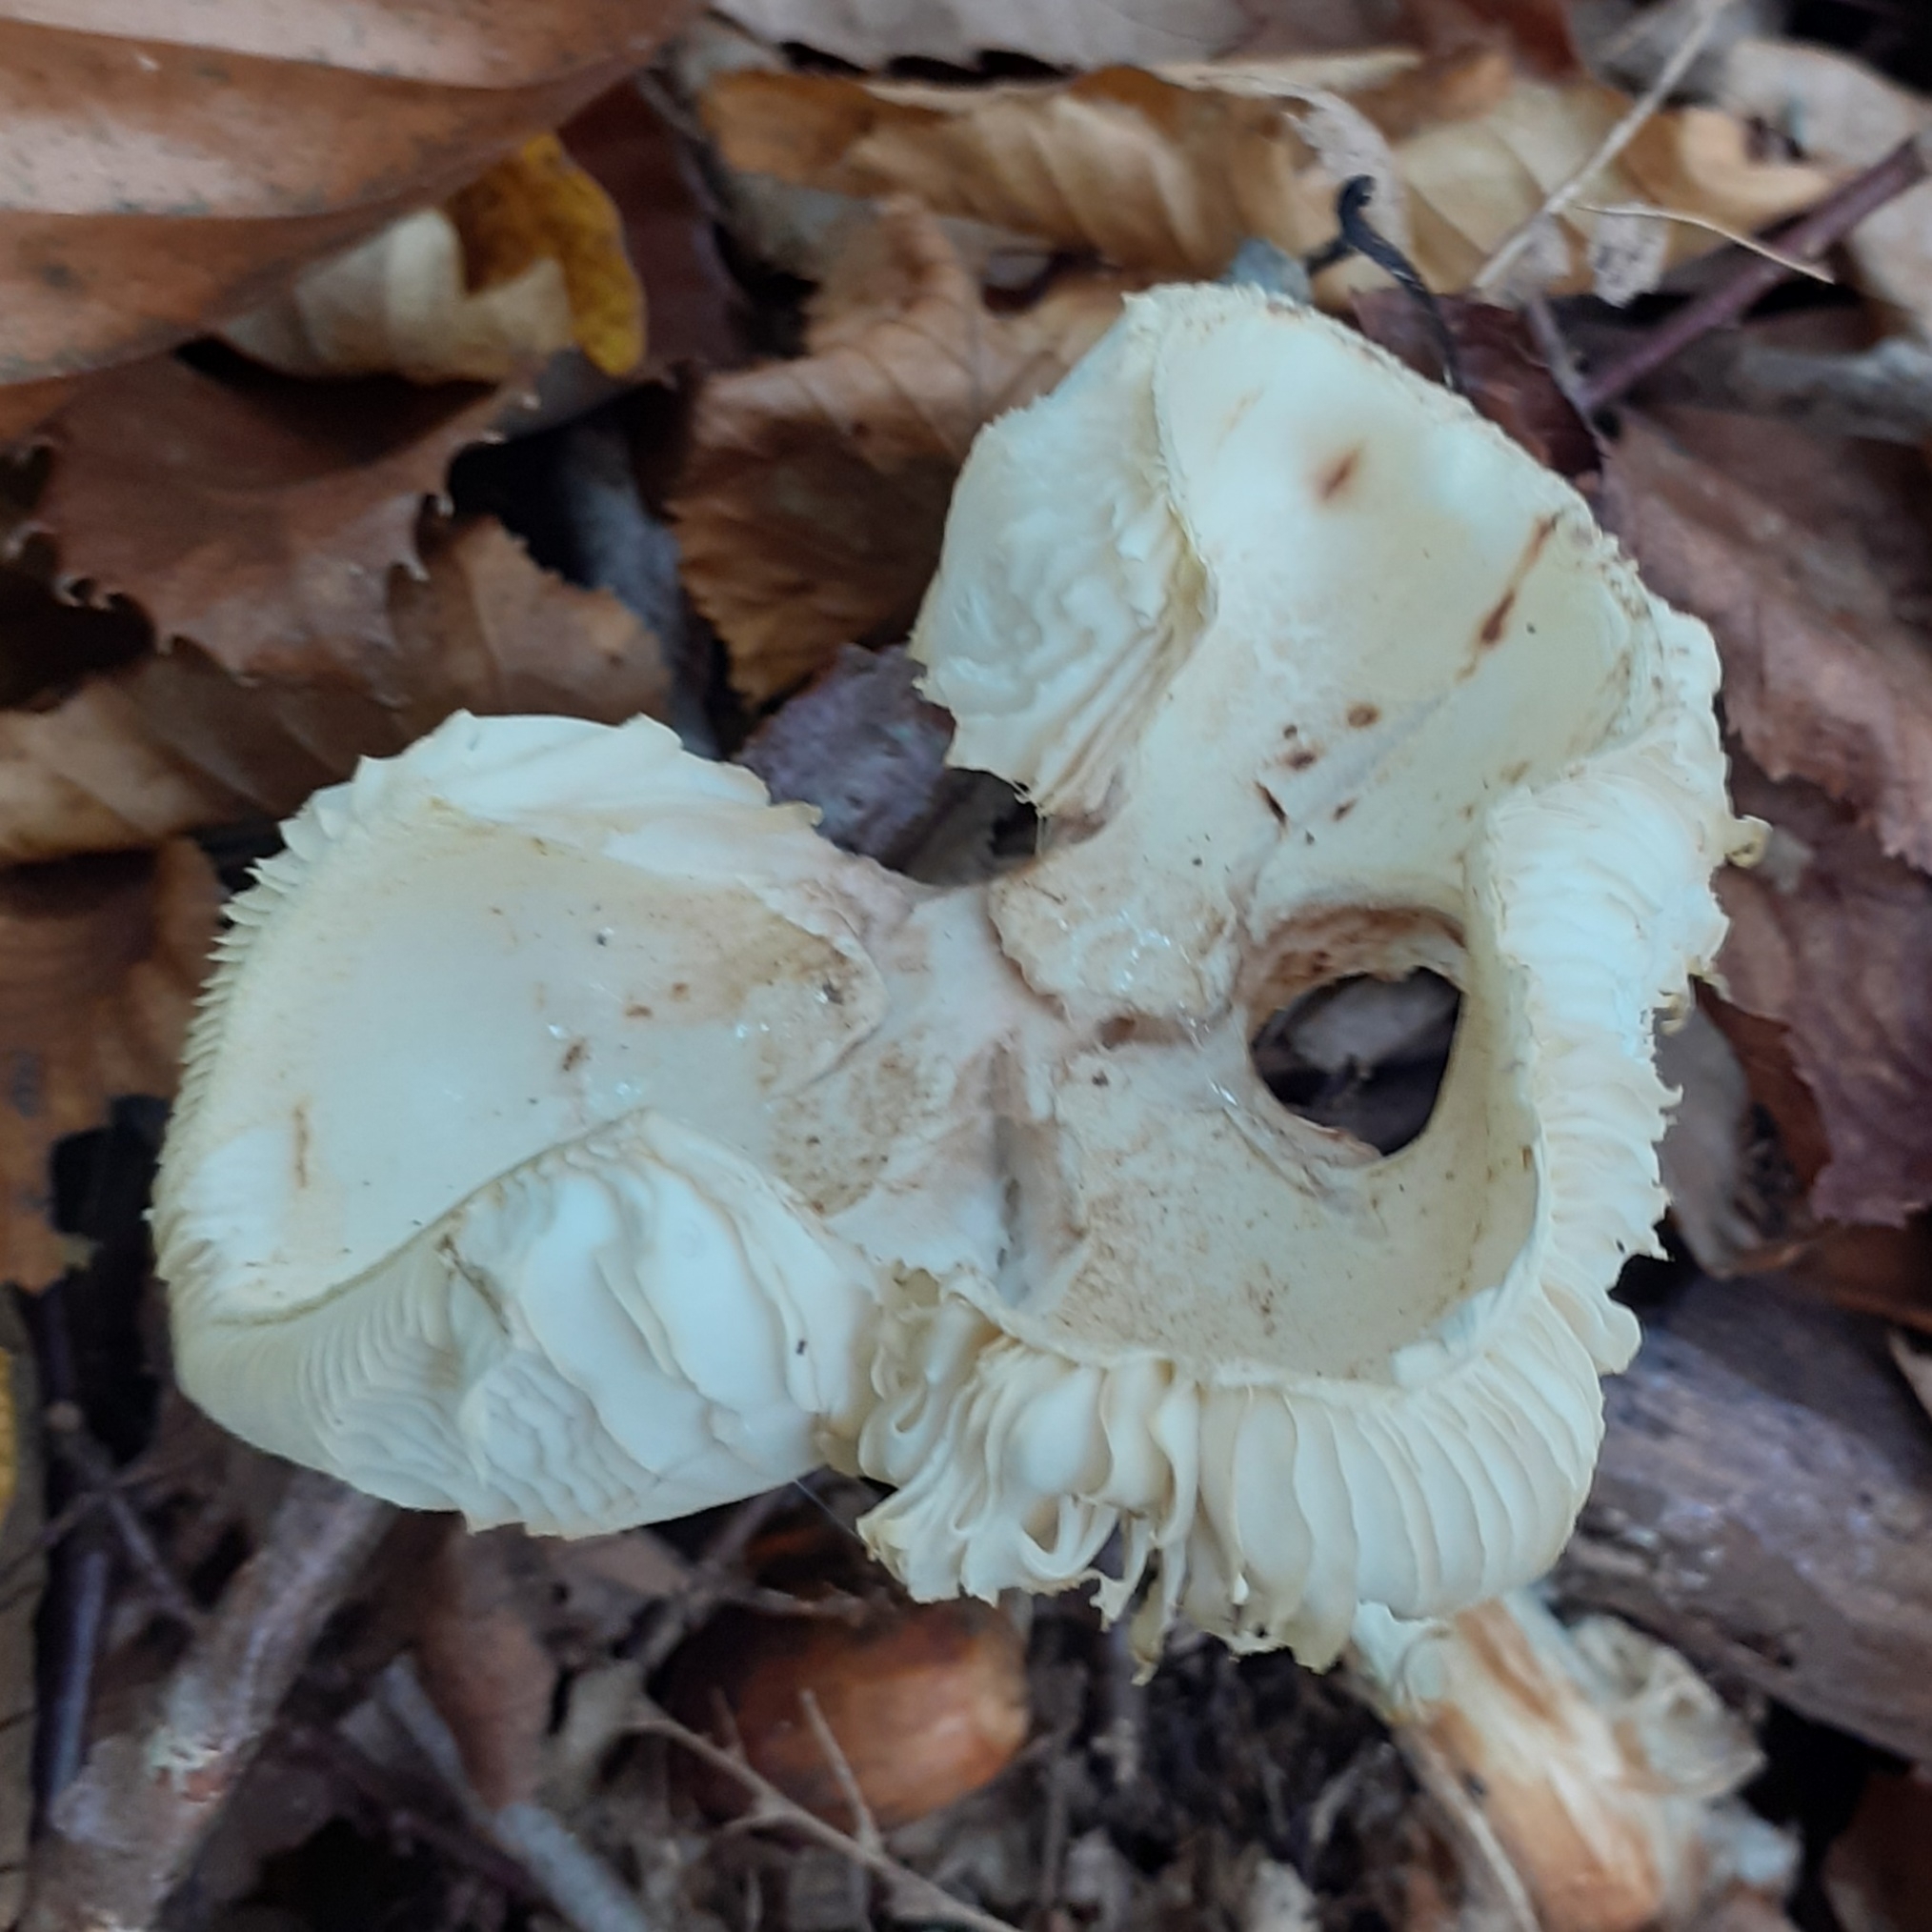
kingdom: Fungi
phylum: Basidiomycota
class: Agaricomycetes
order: Agaricales
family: Amanitaceae
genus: Amanita
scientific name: Amanita citrina
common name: False death-cap
